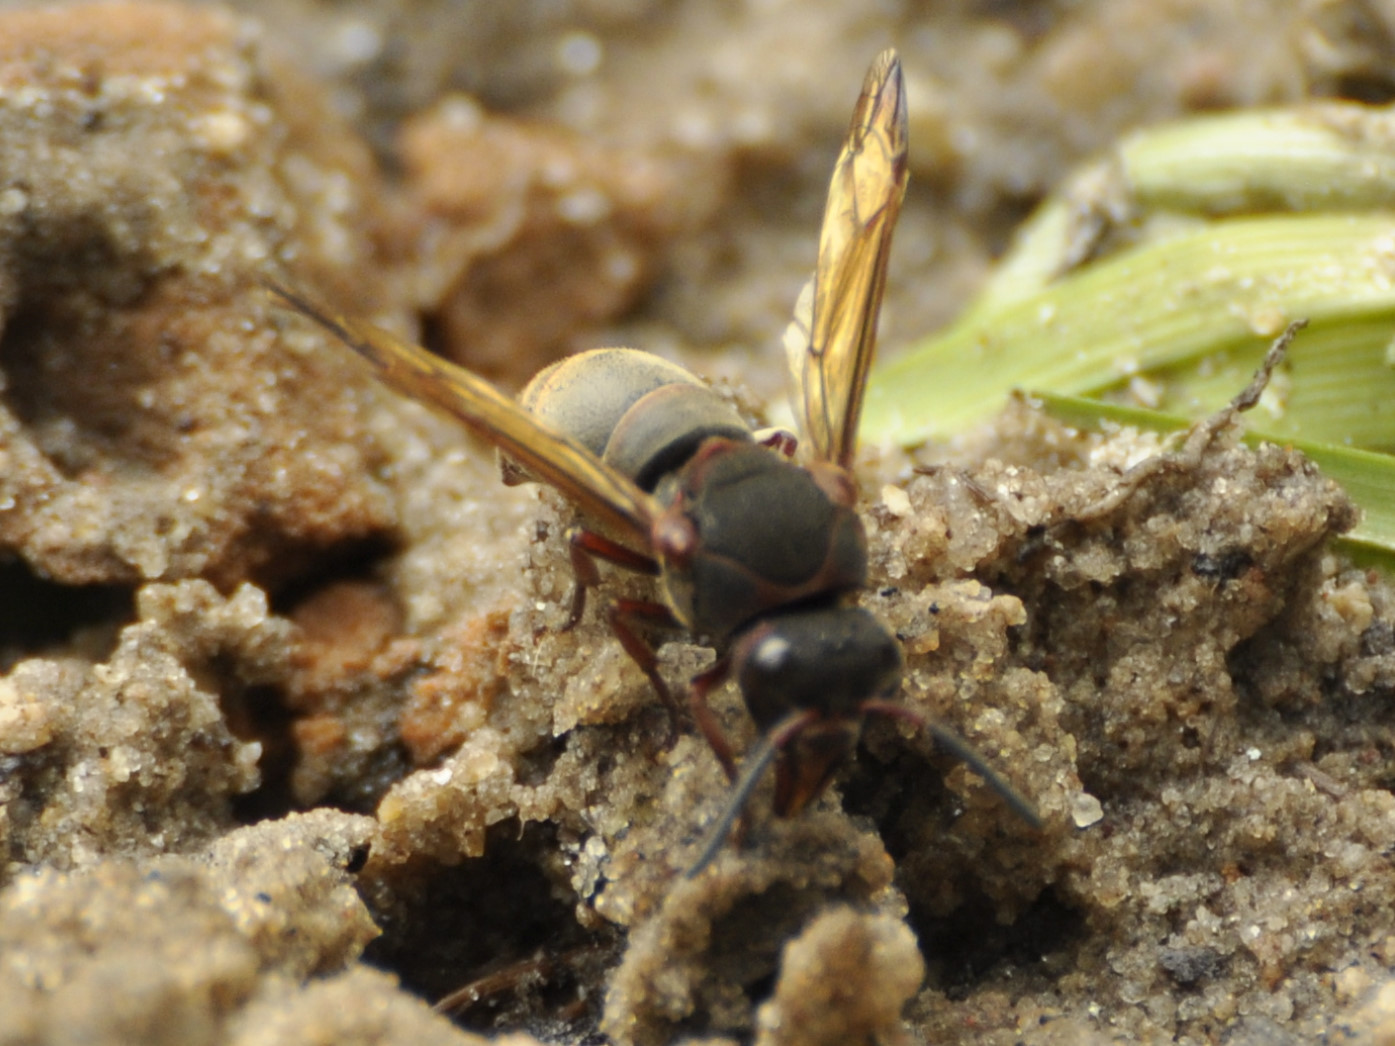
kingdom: Animalia
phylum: Arthropoda
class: Insecta
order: Hymenoptera
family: Eumenidae
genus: Gibberhynchium
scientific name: Gibberhynchium masariforme
